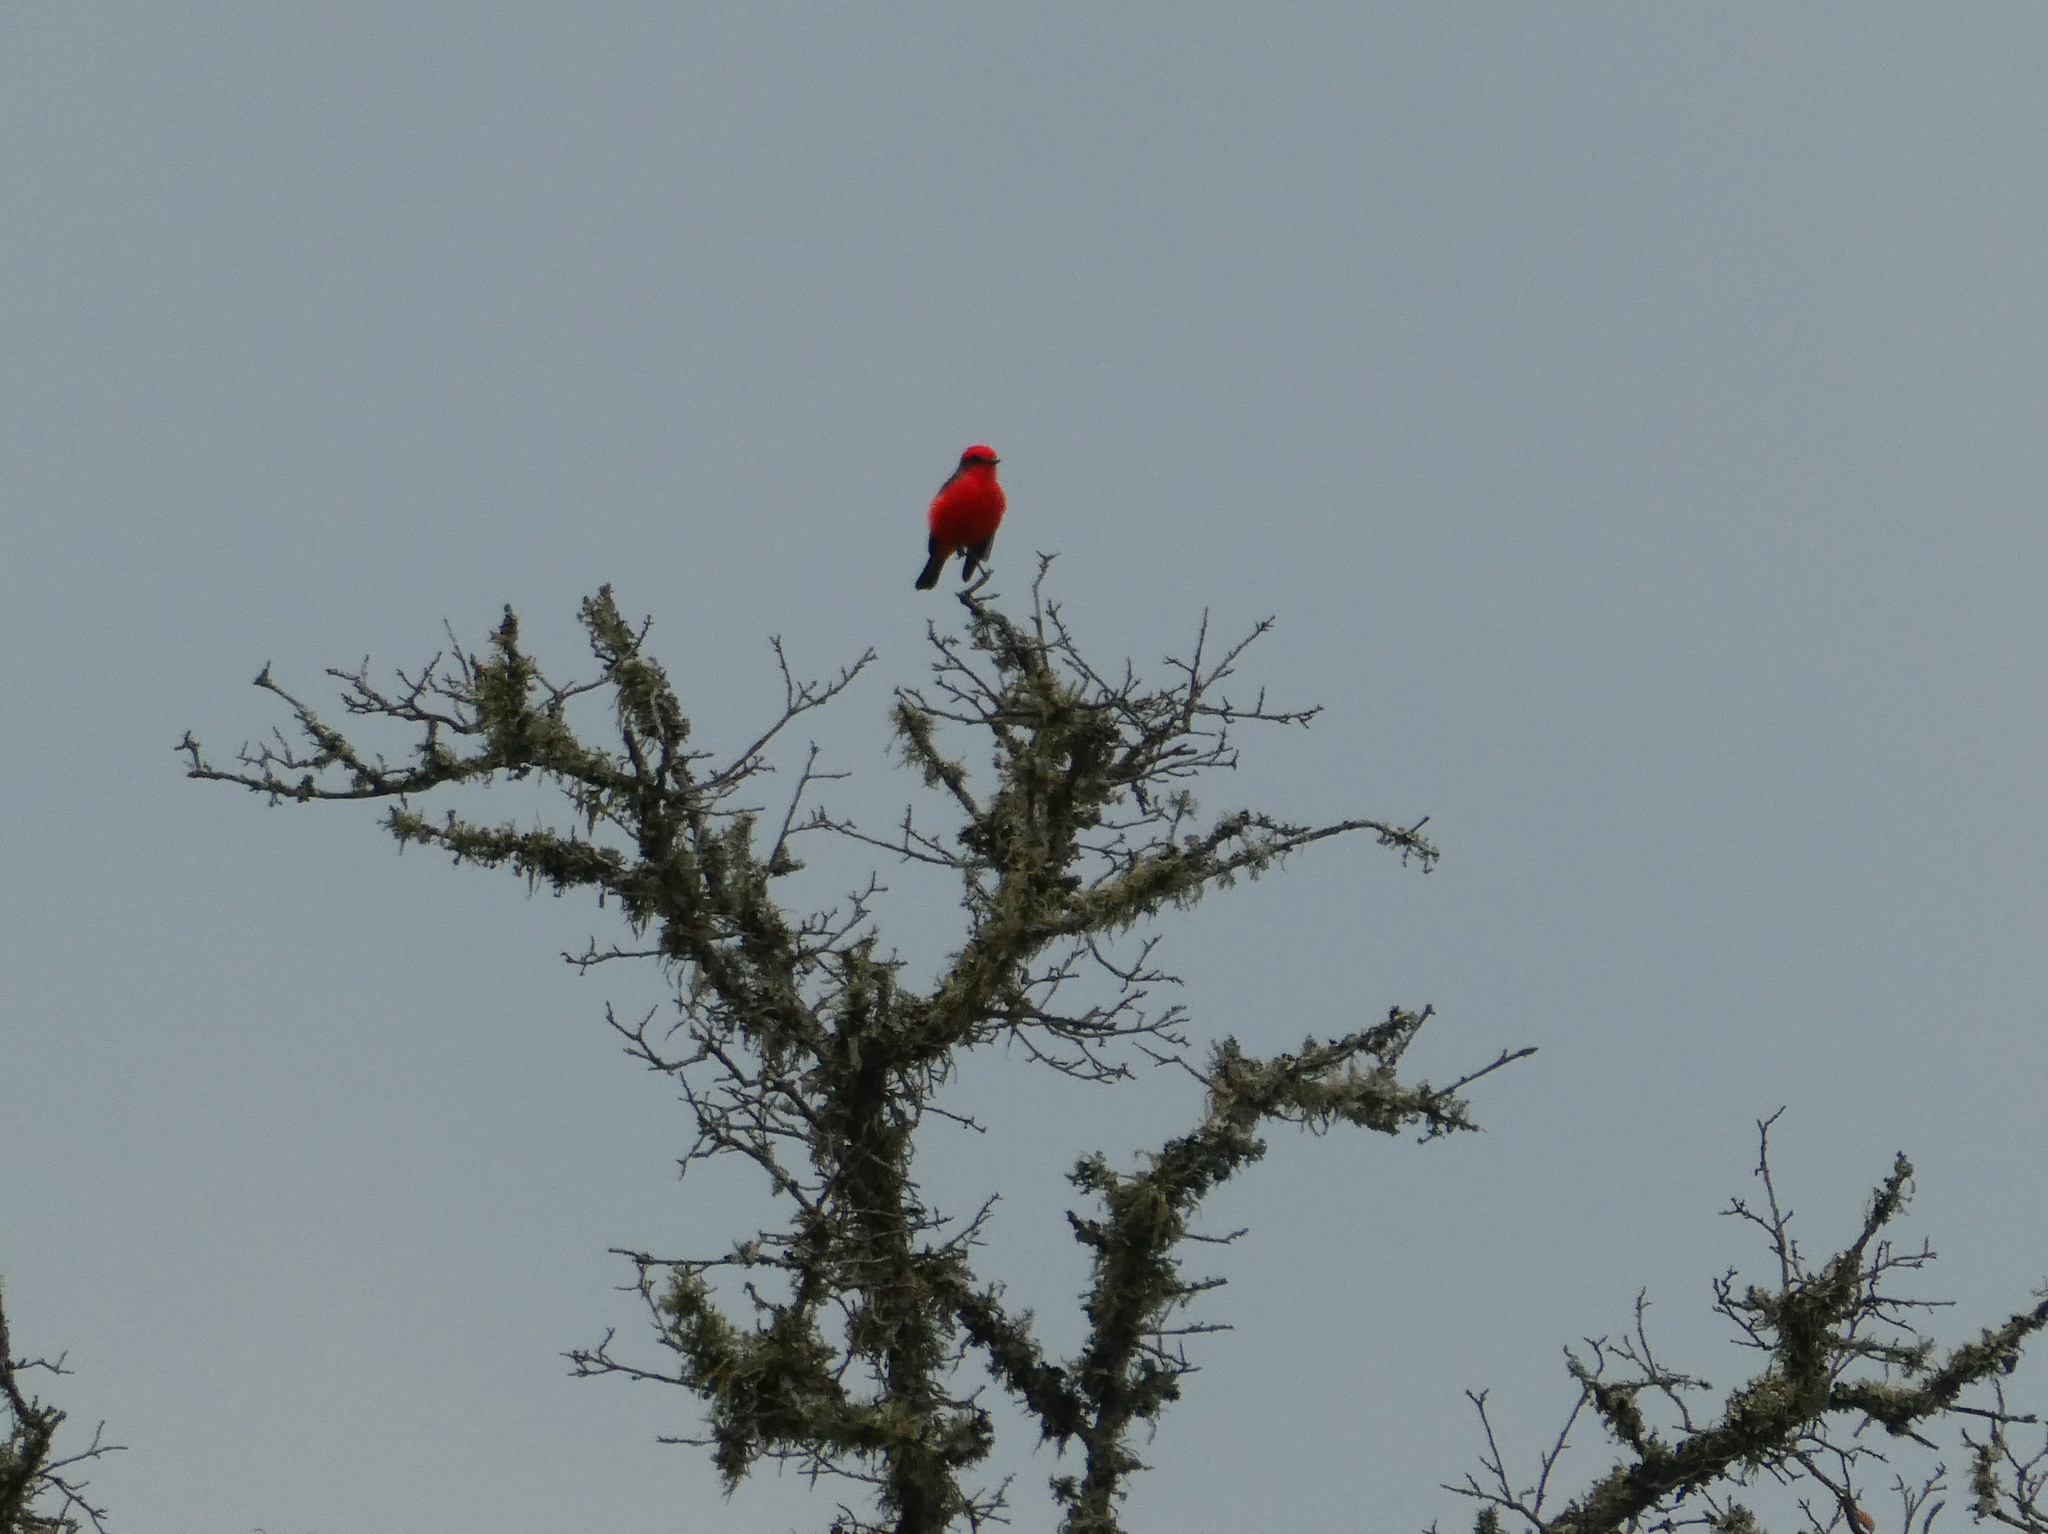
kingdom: Animalia
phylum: Chordata
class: Aves
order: Passeriformes
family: Tyrannidae
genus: Pyrocephalus
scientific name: Pyrocephalus rubinus
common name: Vermilion flycatcher
